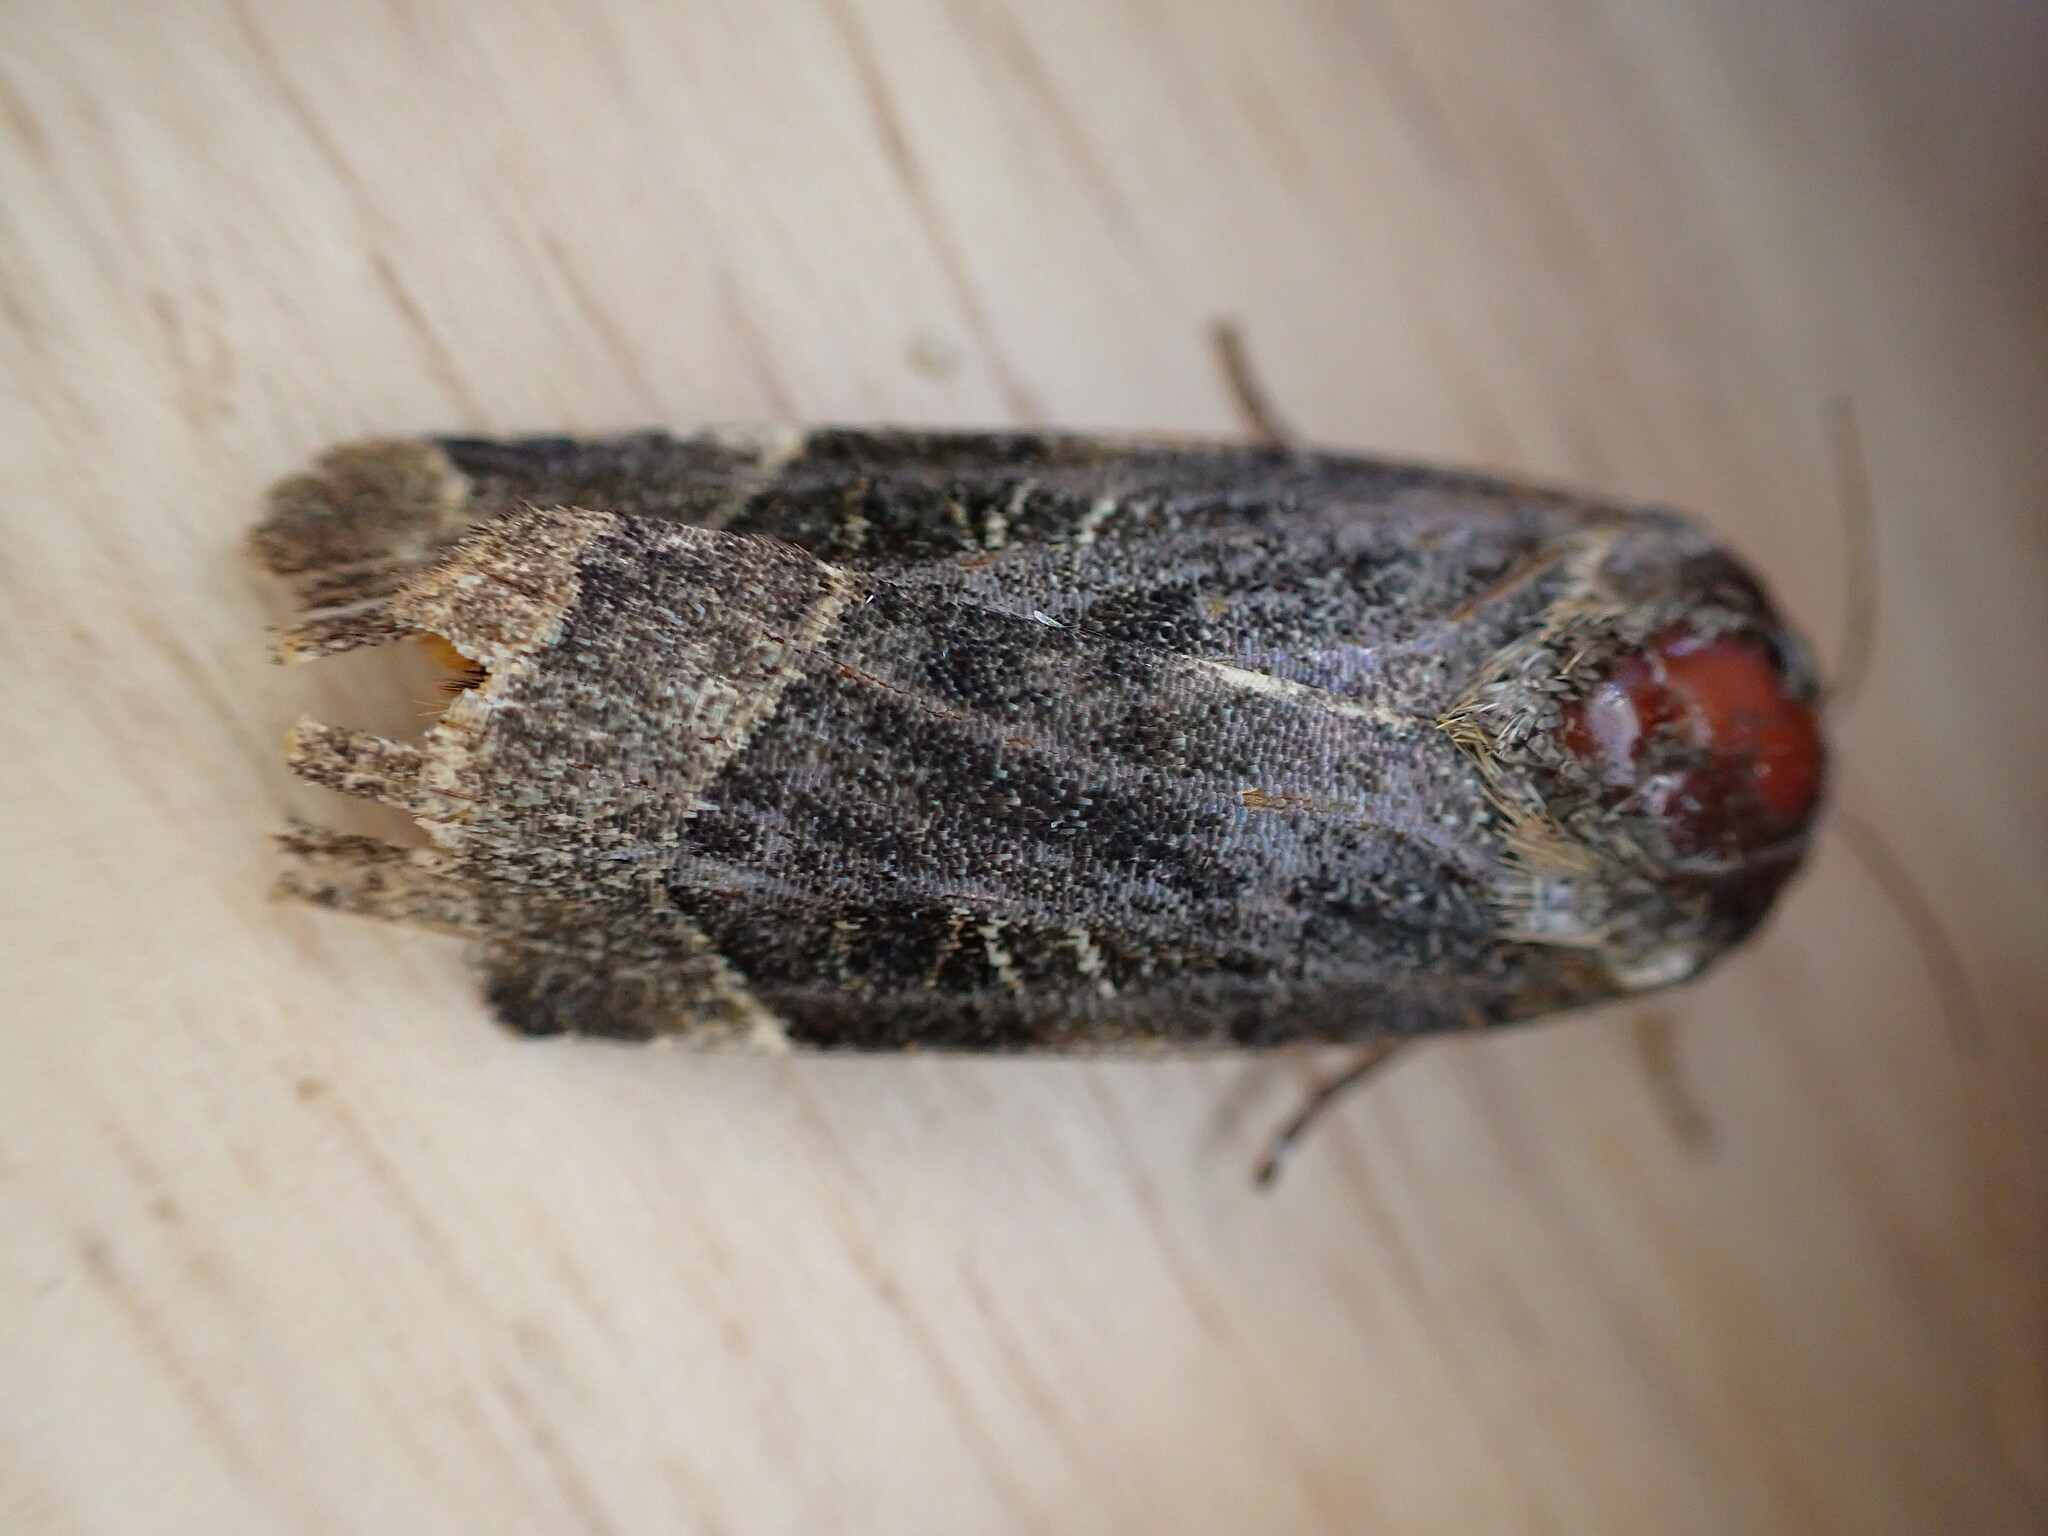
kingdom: Animalia
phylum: Arthropoda
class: Insecta
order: Lepidoptera
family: Noctuidae
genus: Noctua
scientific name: Noctua fimbriata
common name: Broad-bordered yellow underwing
